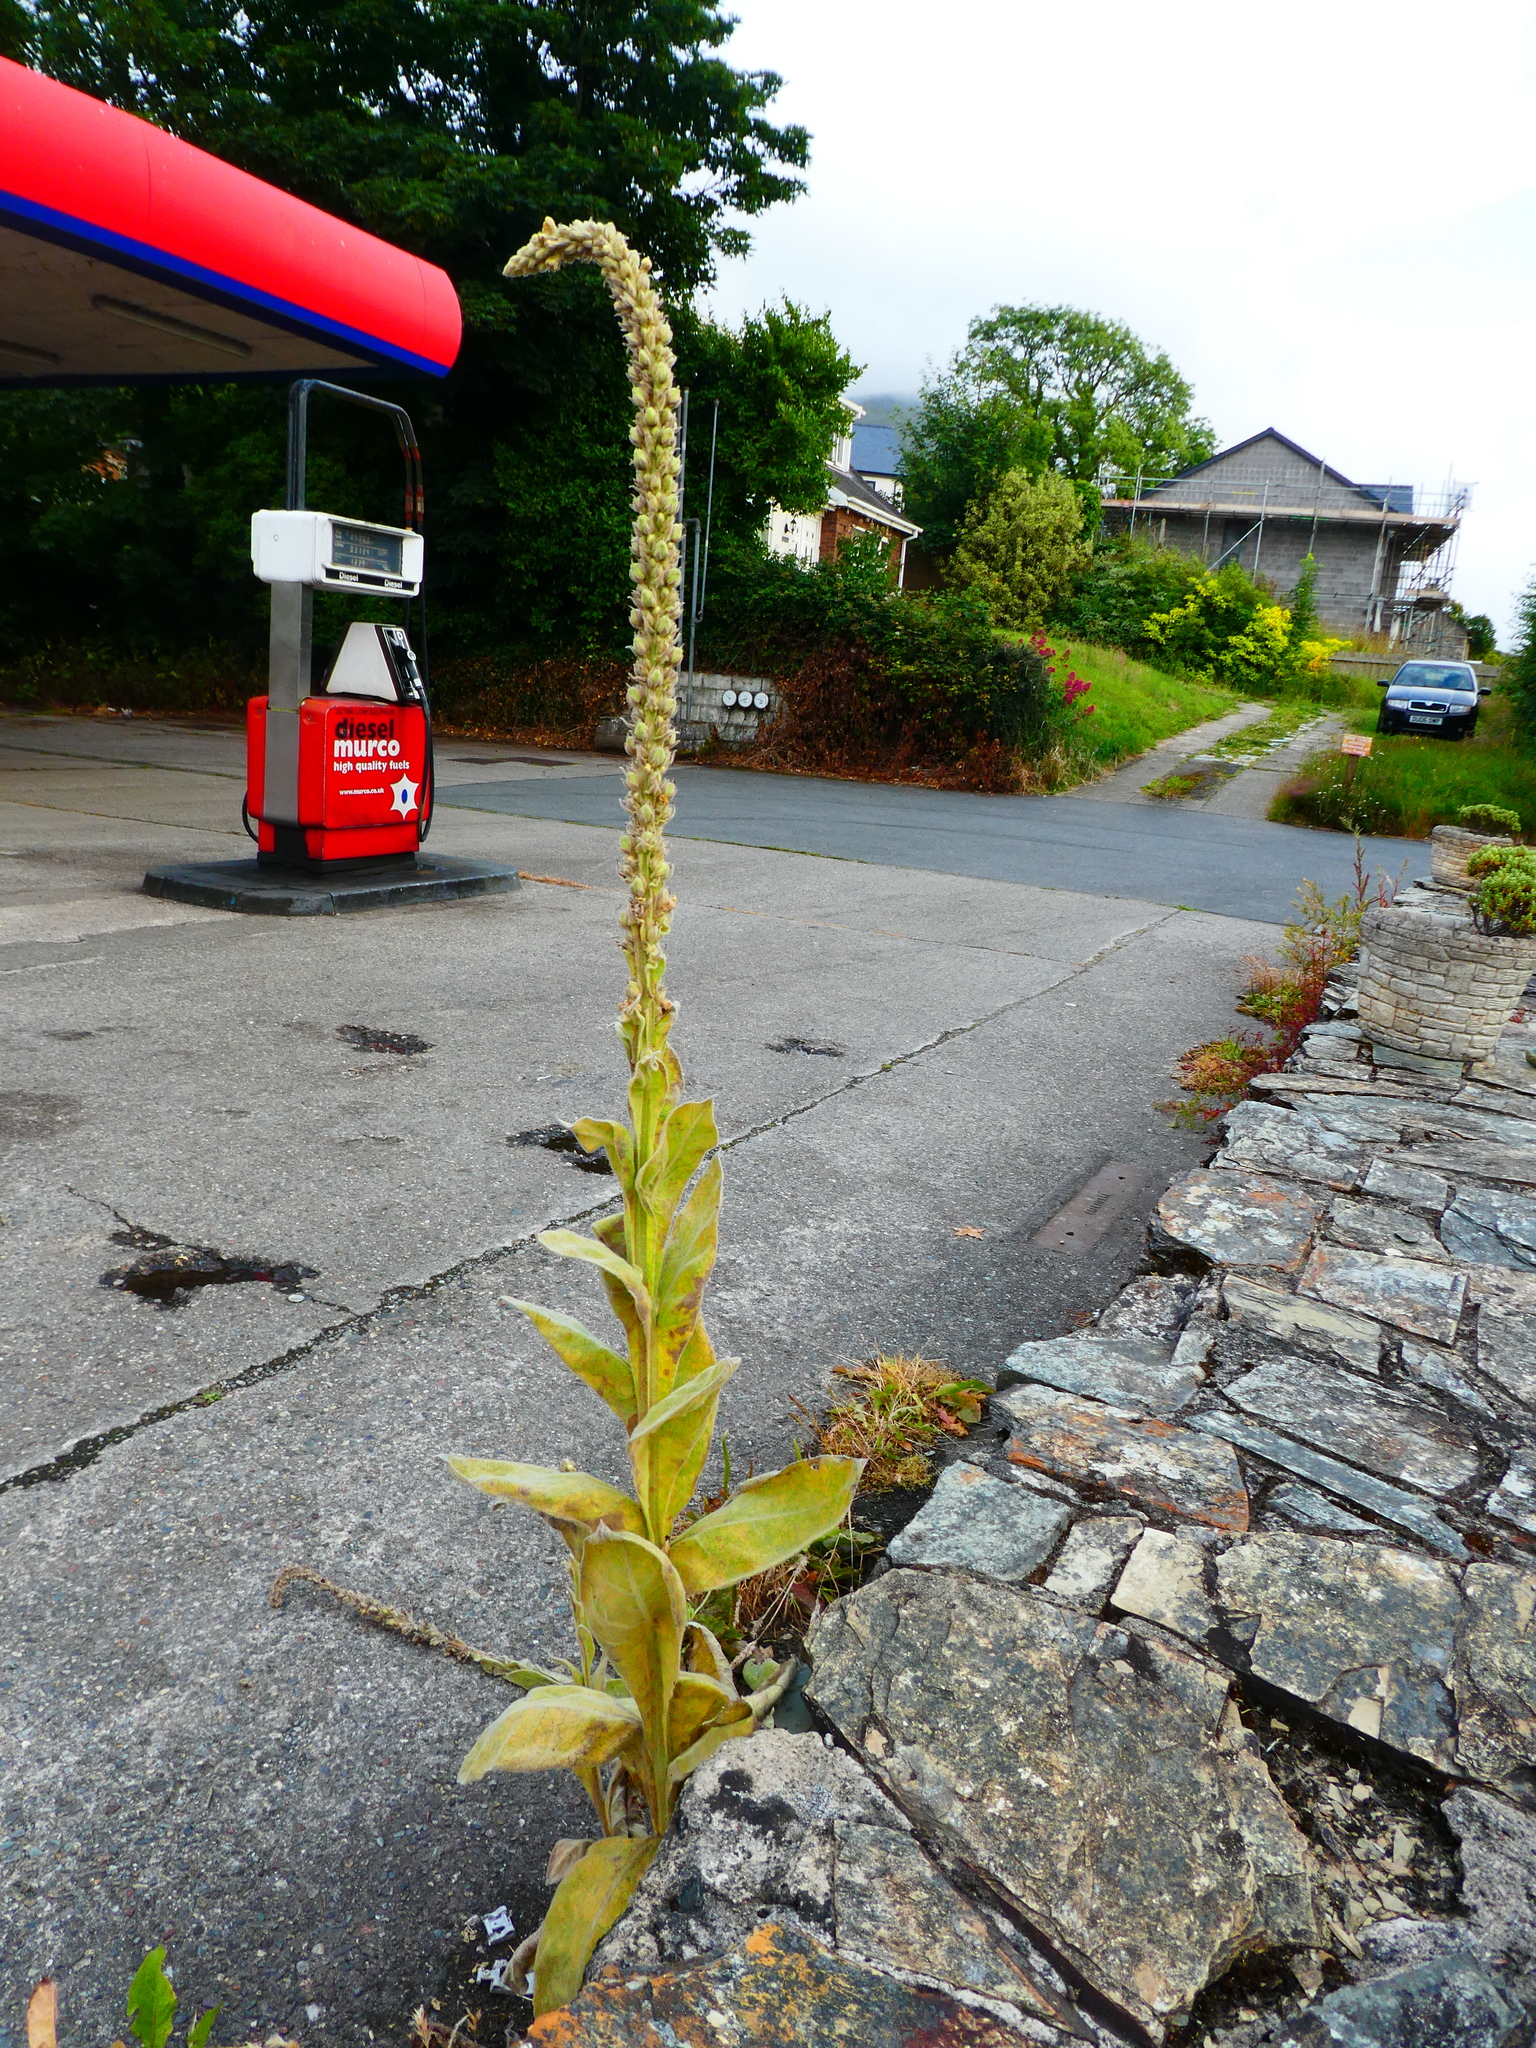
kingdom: Plantae
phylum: Tracheophyta
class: Magnoliopsida
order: Lamiales
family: Scrophulariaceae
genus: Verbascum
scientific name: Verbascum thapsus
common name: Common mullein
